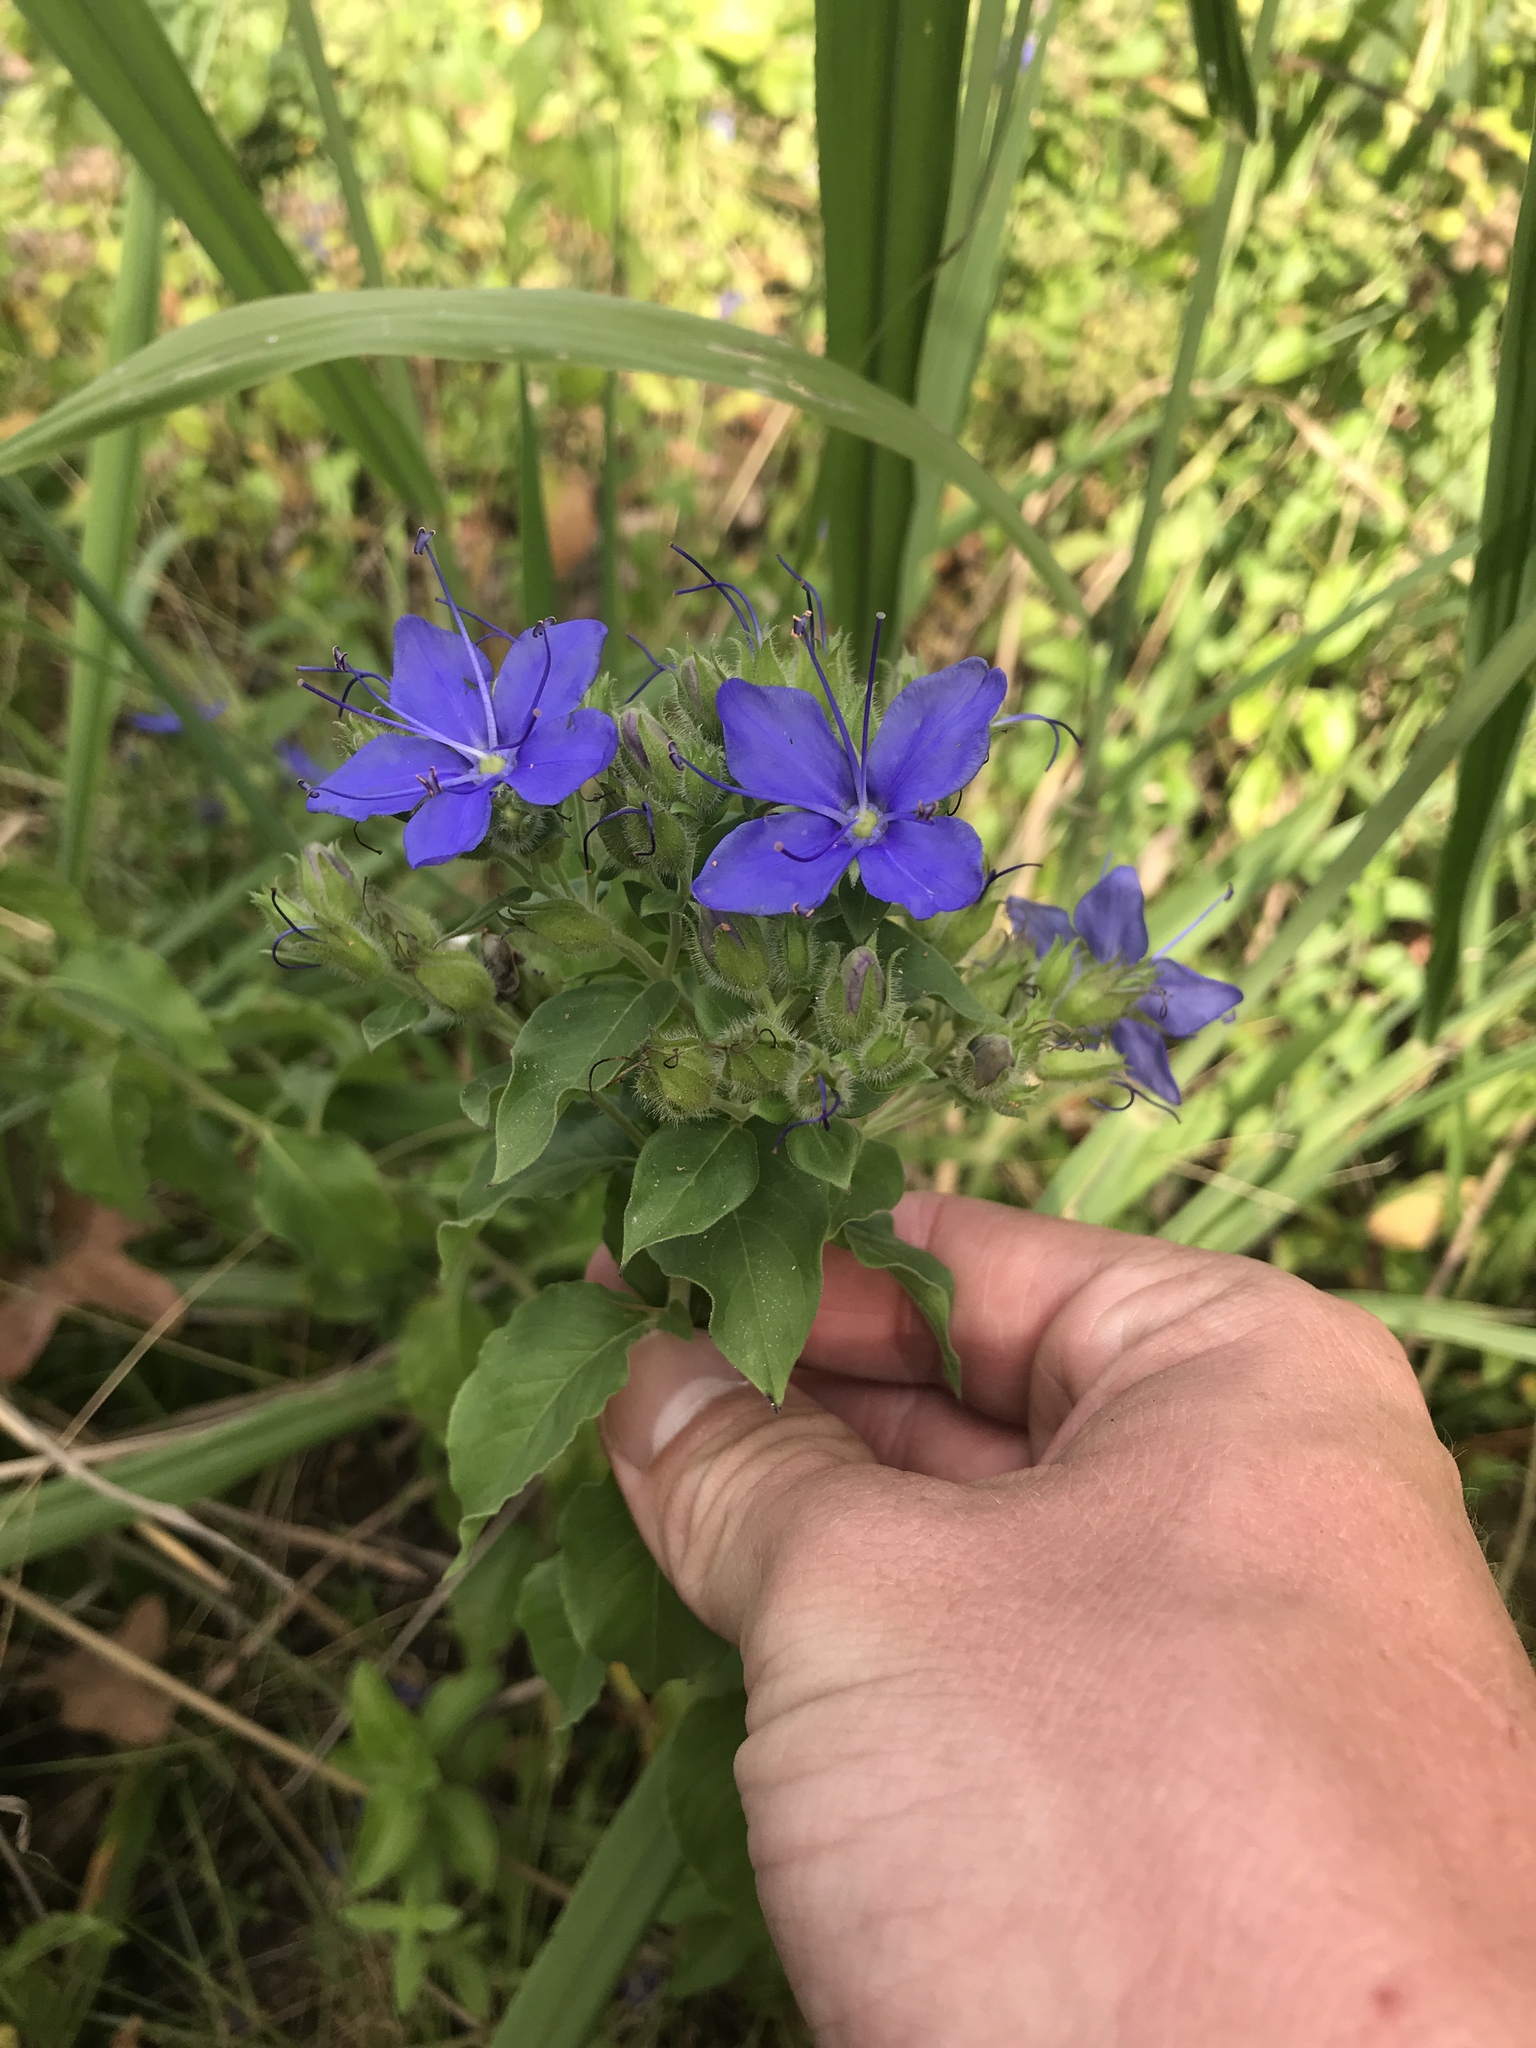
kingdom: Plantae
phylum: Tracheophyta
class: Magnoliopsida
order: Solanales
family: Hydroleaceae
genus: Hydrolea
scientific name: Hydrolea ovata
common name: Ovate false fiddleleaf
